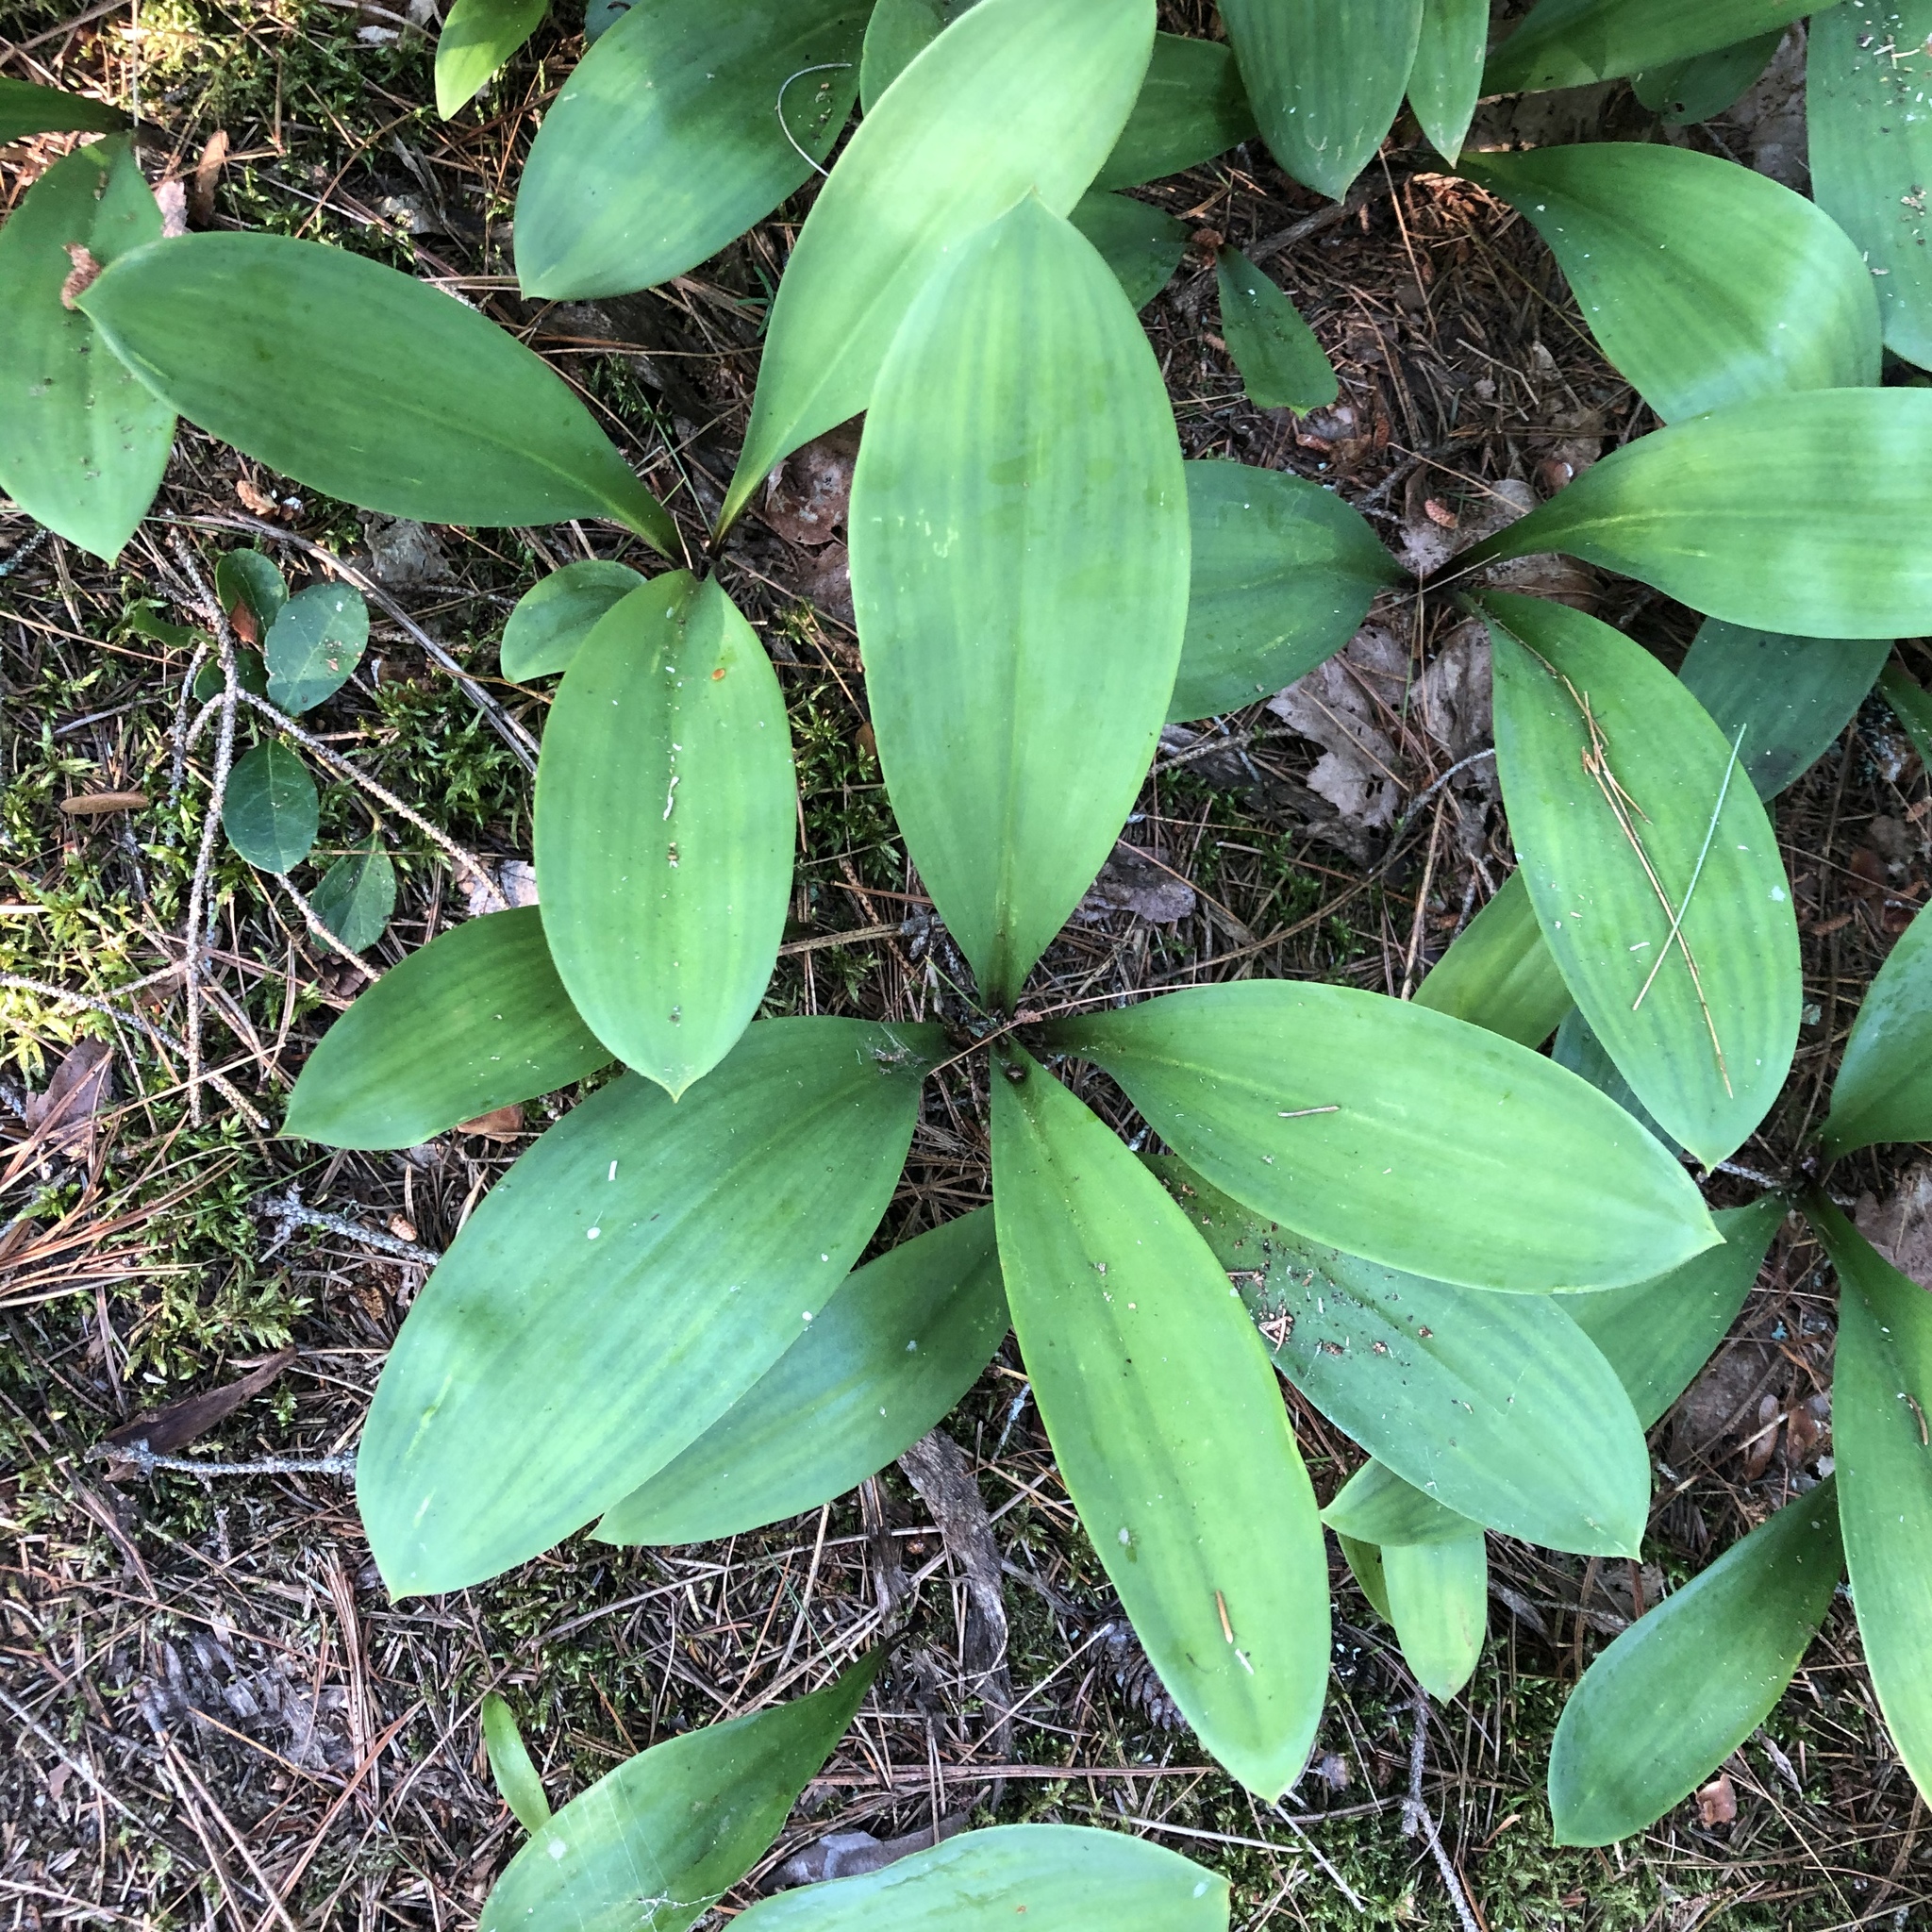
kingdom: Plantae
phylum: Tracheophyta
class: Liliopsida
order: Liliales
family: Liliaceae
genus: Clintonia
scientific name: Clintonia borealis
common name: Yellow clintonia
